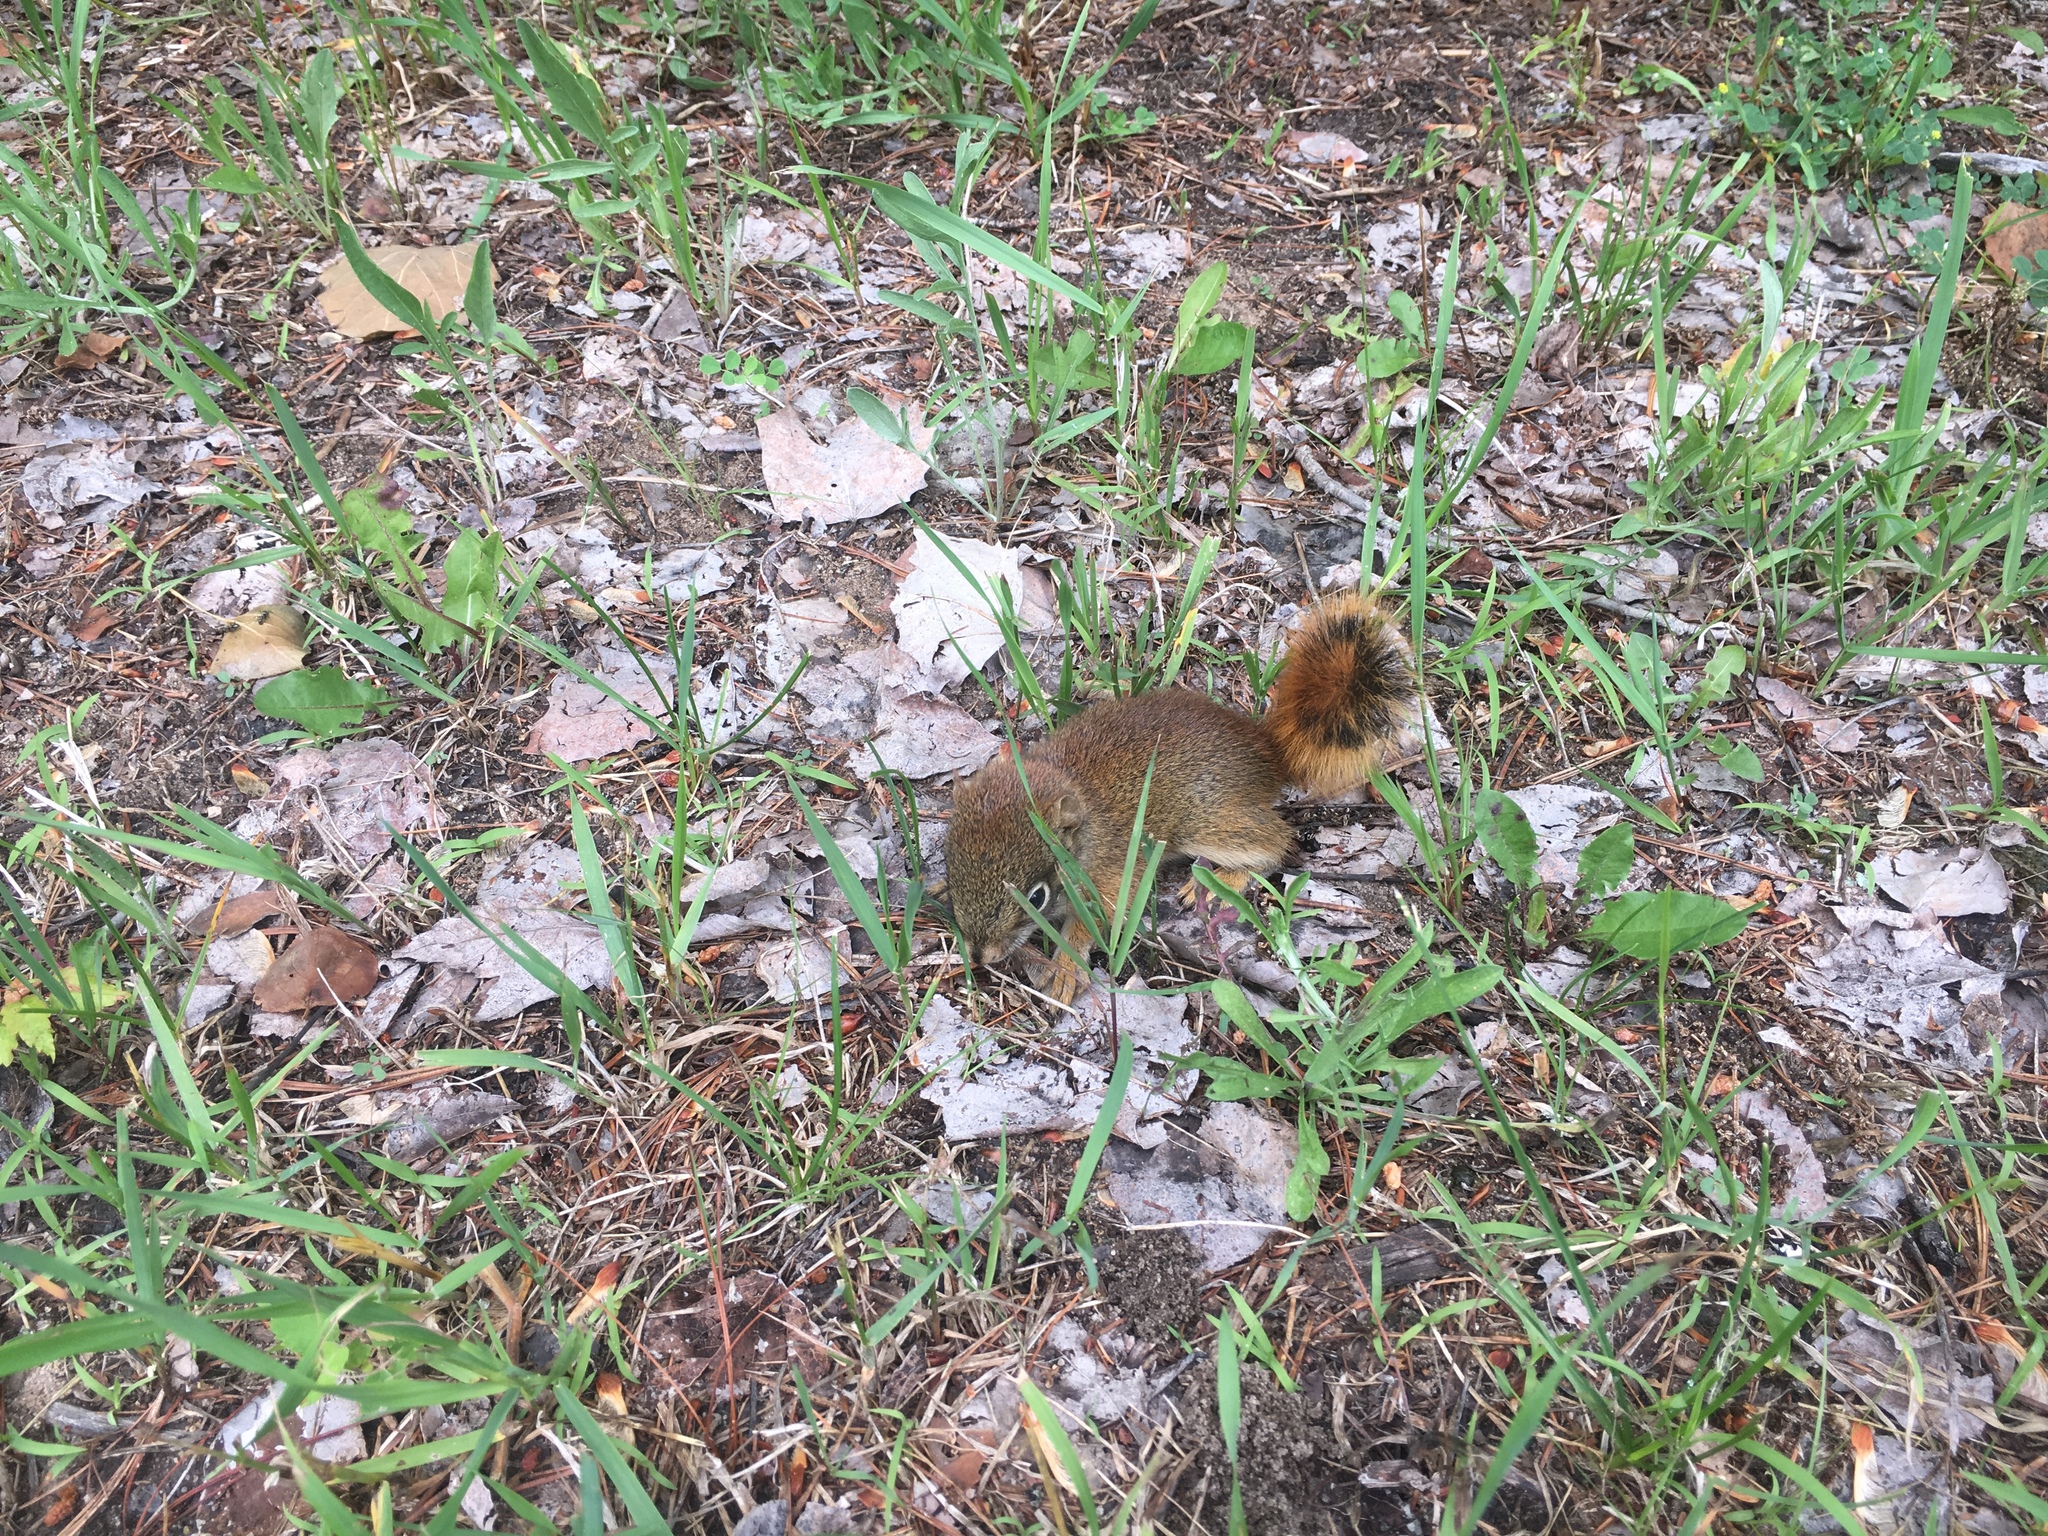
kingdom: Animalia
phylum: Chordata
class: Mammalia
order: Rodentia
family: Sciuridae
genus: Tamiasciurus
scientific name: Tamiasciurus hudsonicus
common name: Red squirrel
